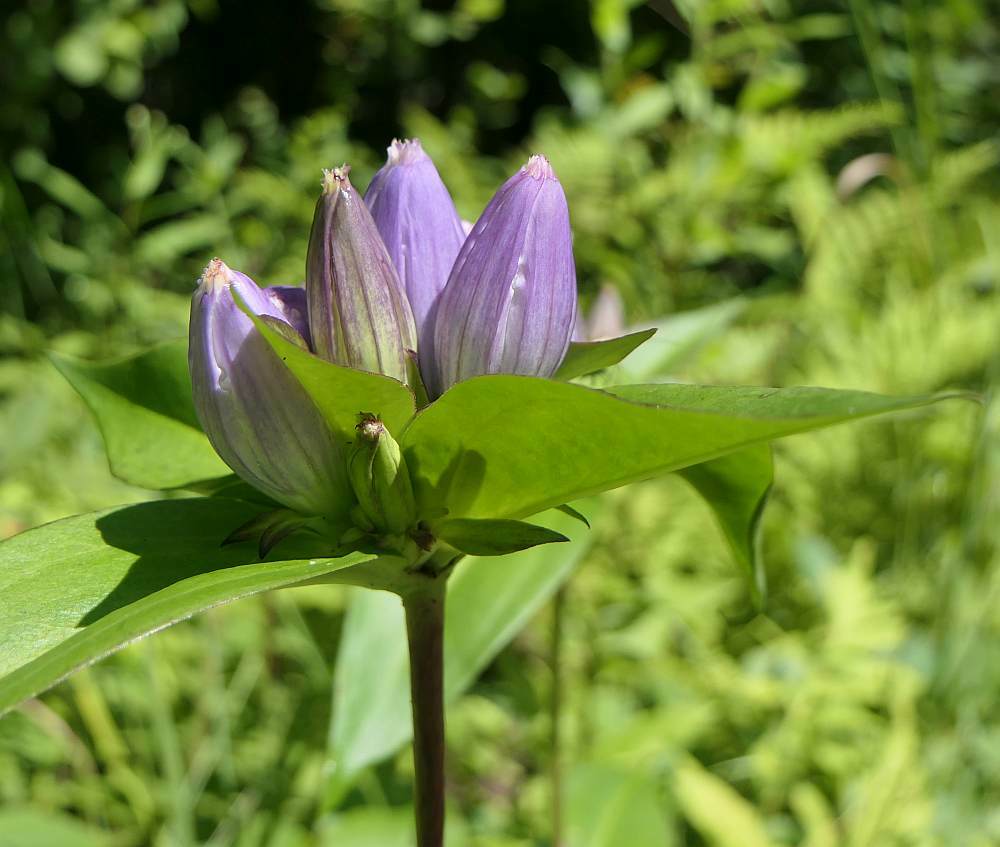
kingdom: Plantae
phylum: Tracheophyta
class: Magnoliopsida
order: Gentianales
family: Gentianaceae
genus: Gentiana
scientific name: Gentiana andrewsii
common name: Bottle gentian
